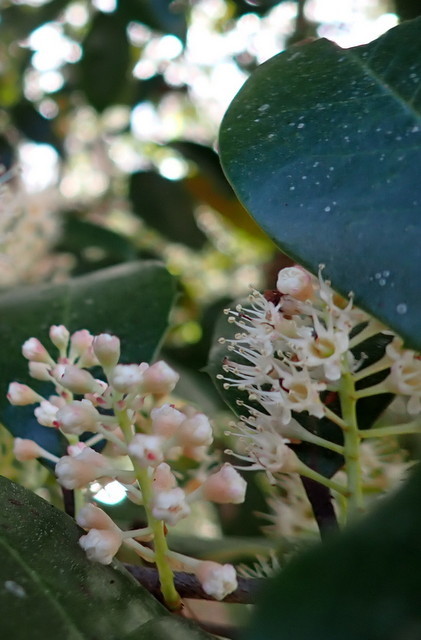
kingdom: Plantae
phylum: Tracheophyta
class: Magnoliopsida
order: Rosales
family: Rosaceae
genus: Prunus
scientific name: Prunus caroliniana
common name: Carolina laurel cherry
